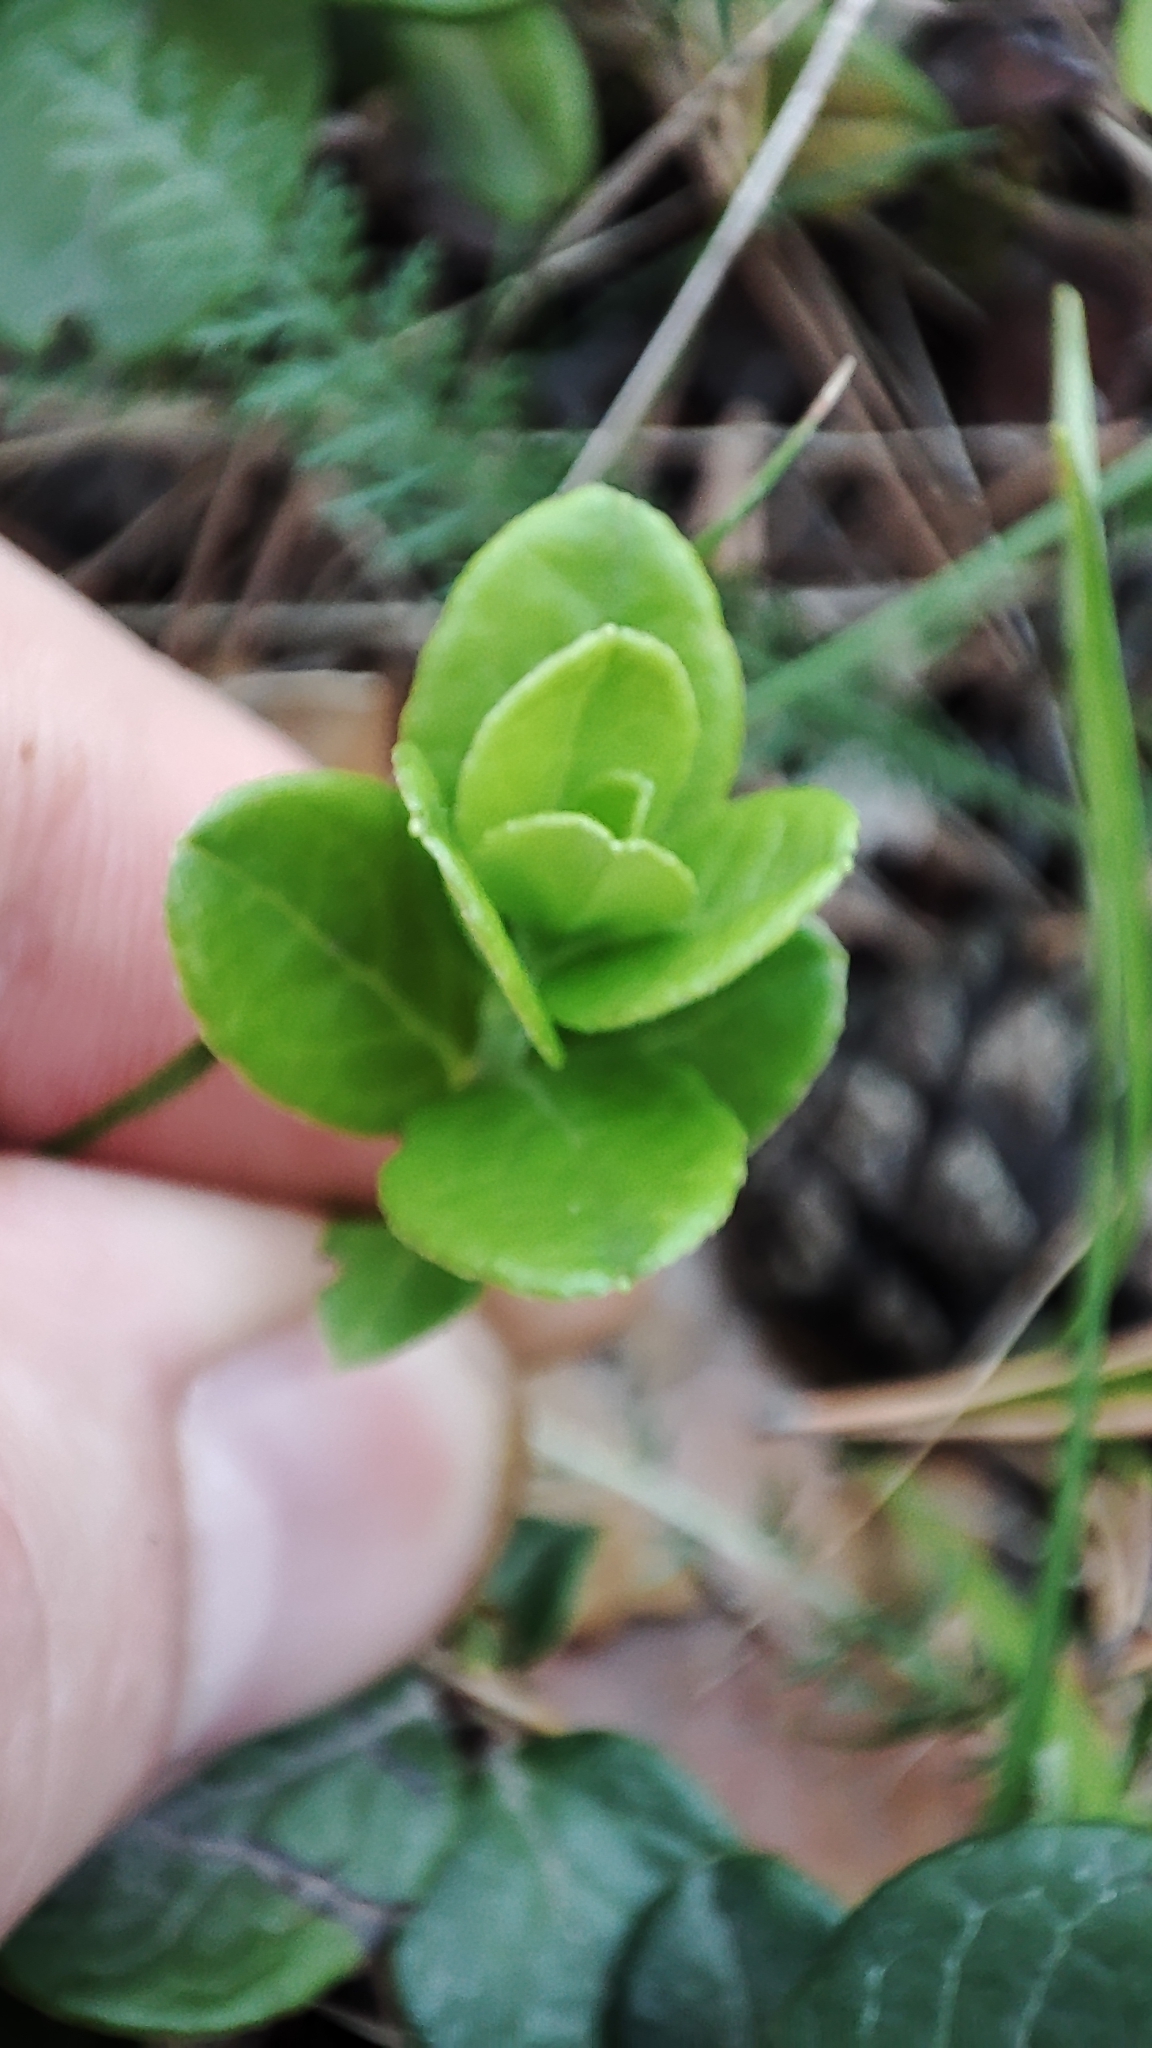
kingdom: Plantae
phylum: Tracheophyta
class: Magnoliopsida
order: Ericales
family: Ericaceae
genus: Vaccinium
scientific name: Vaccinium vitis-idaea
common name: Cowberry
